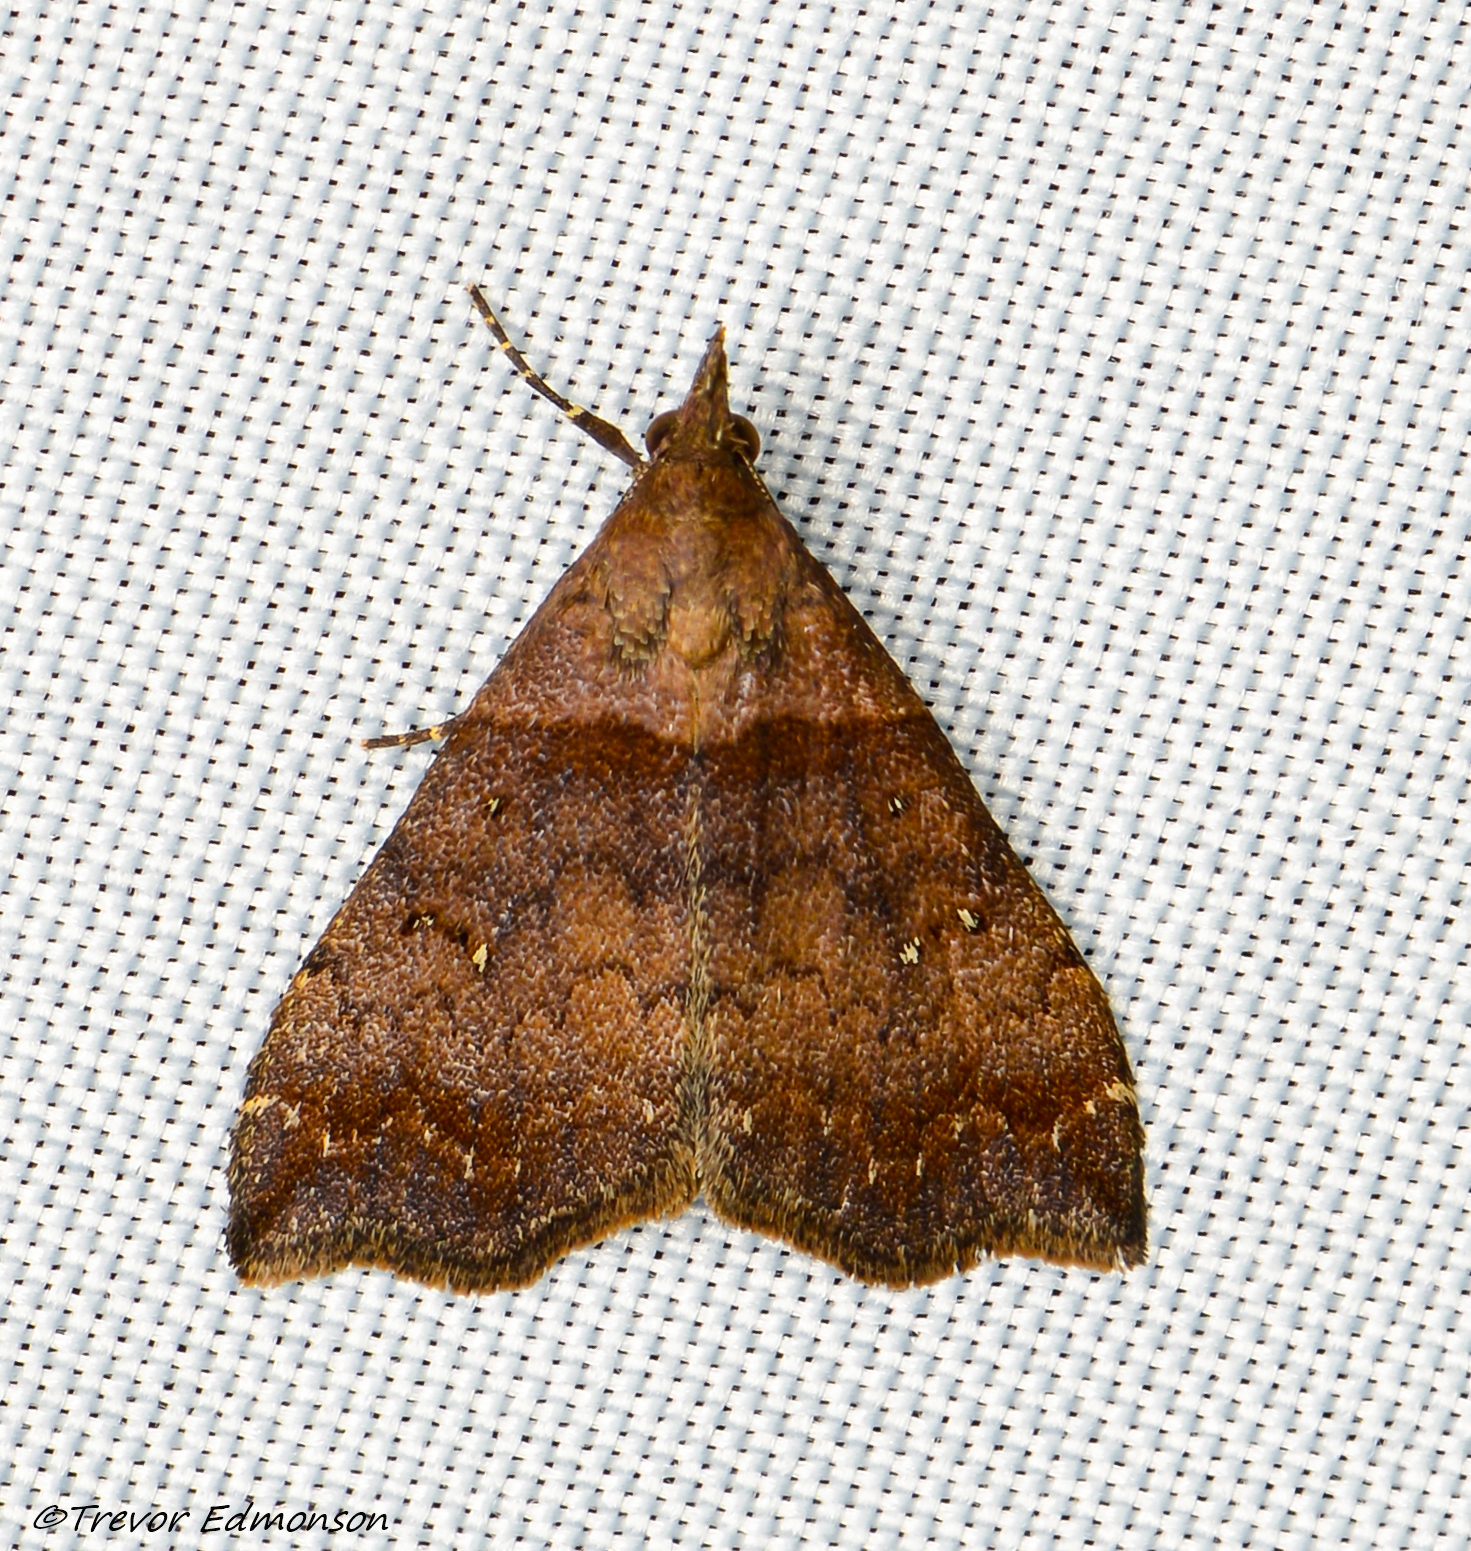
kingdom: Animalia
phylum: Arthropoda
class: Insecta
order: Lepidoptera
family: Erebidae
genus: Lascoria
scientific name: Lascoria ambigualis
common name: Ambiguous moth
